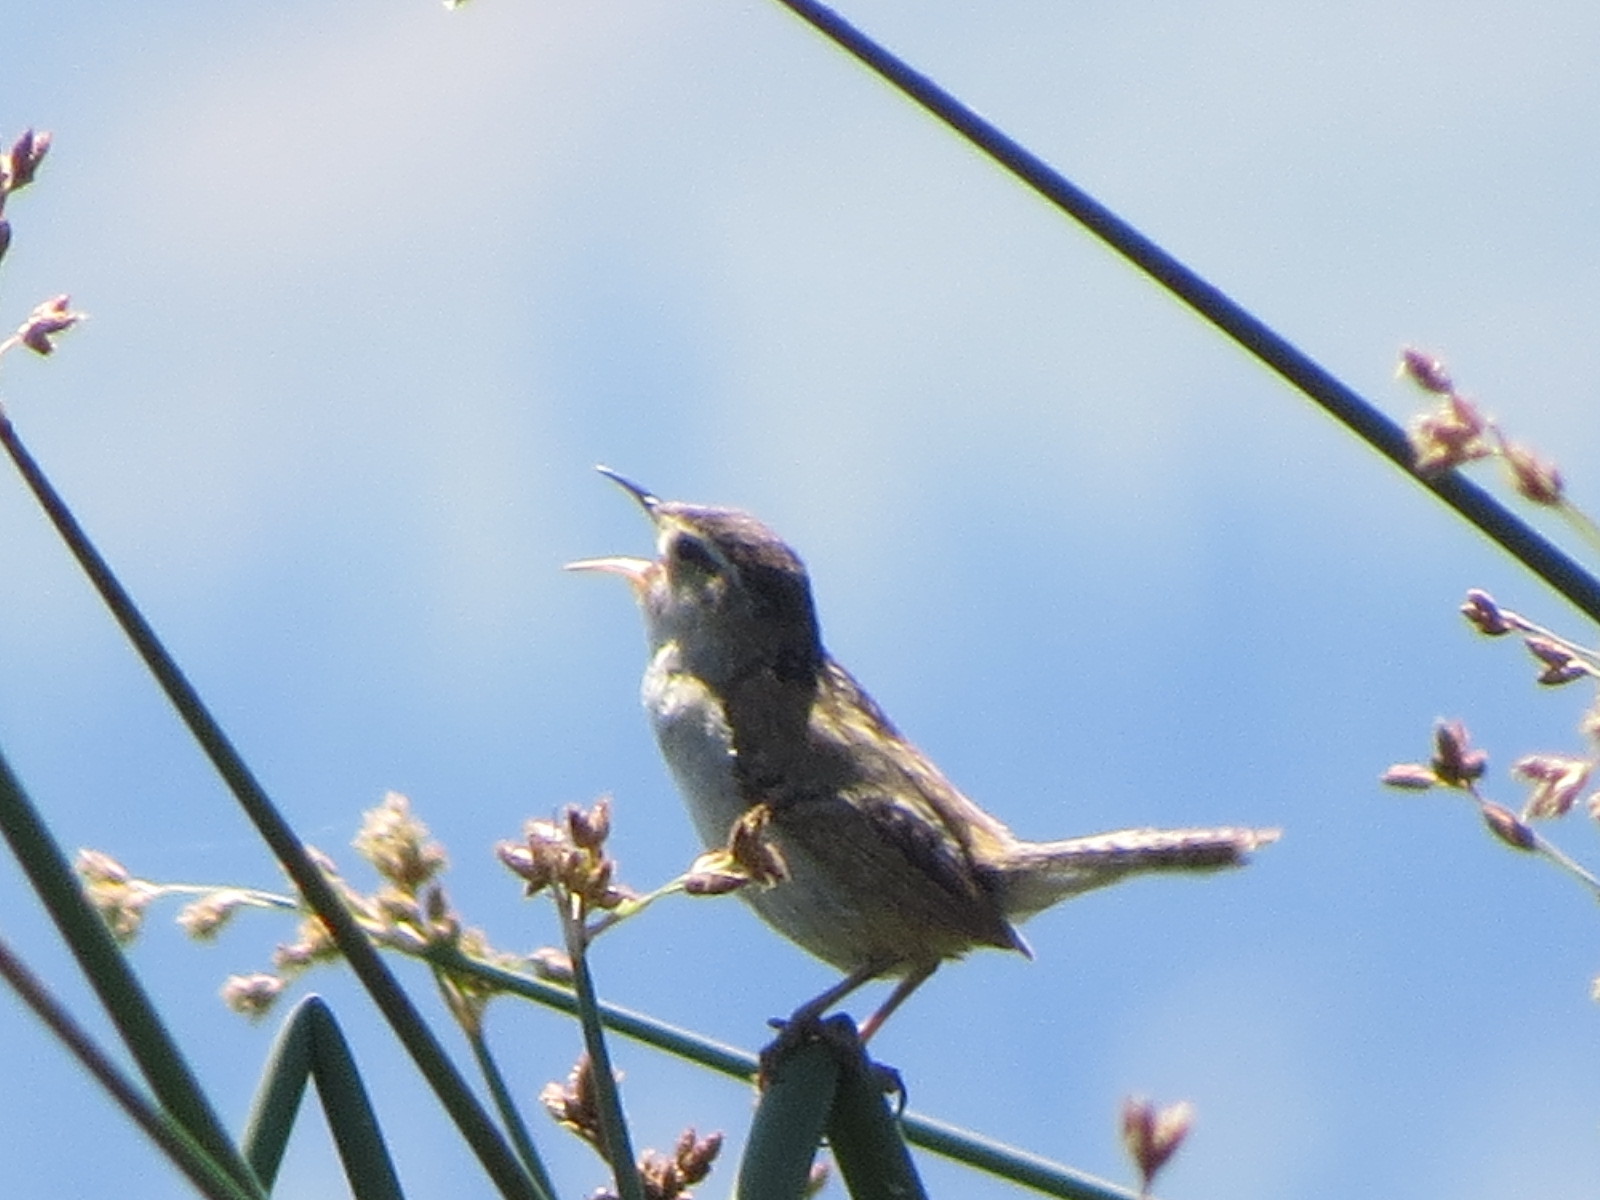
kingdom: Animalia
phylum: Chordata
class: Aves
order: Passeriformes
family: Troglodytidae
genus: Cistothorus
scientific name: Cistothorus palustris
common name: Marsh wren
